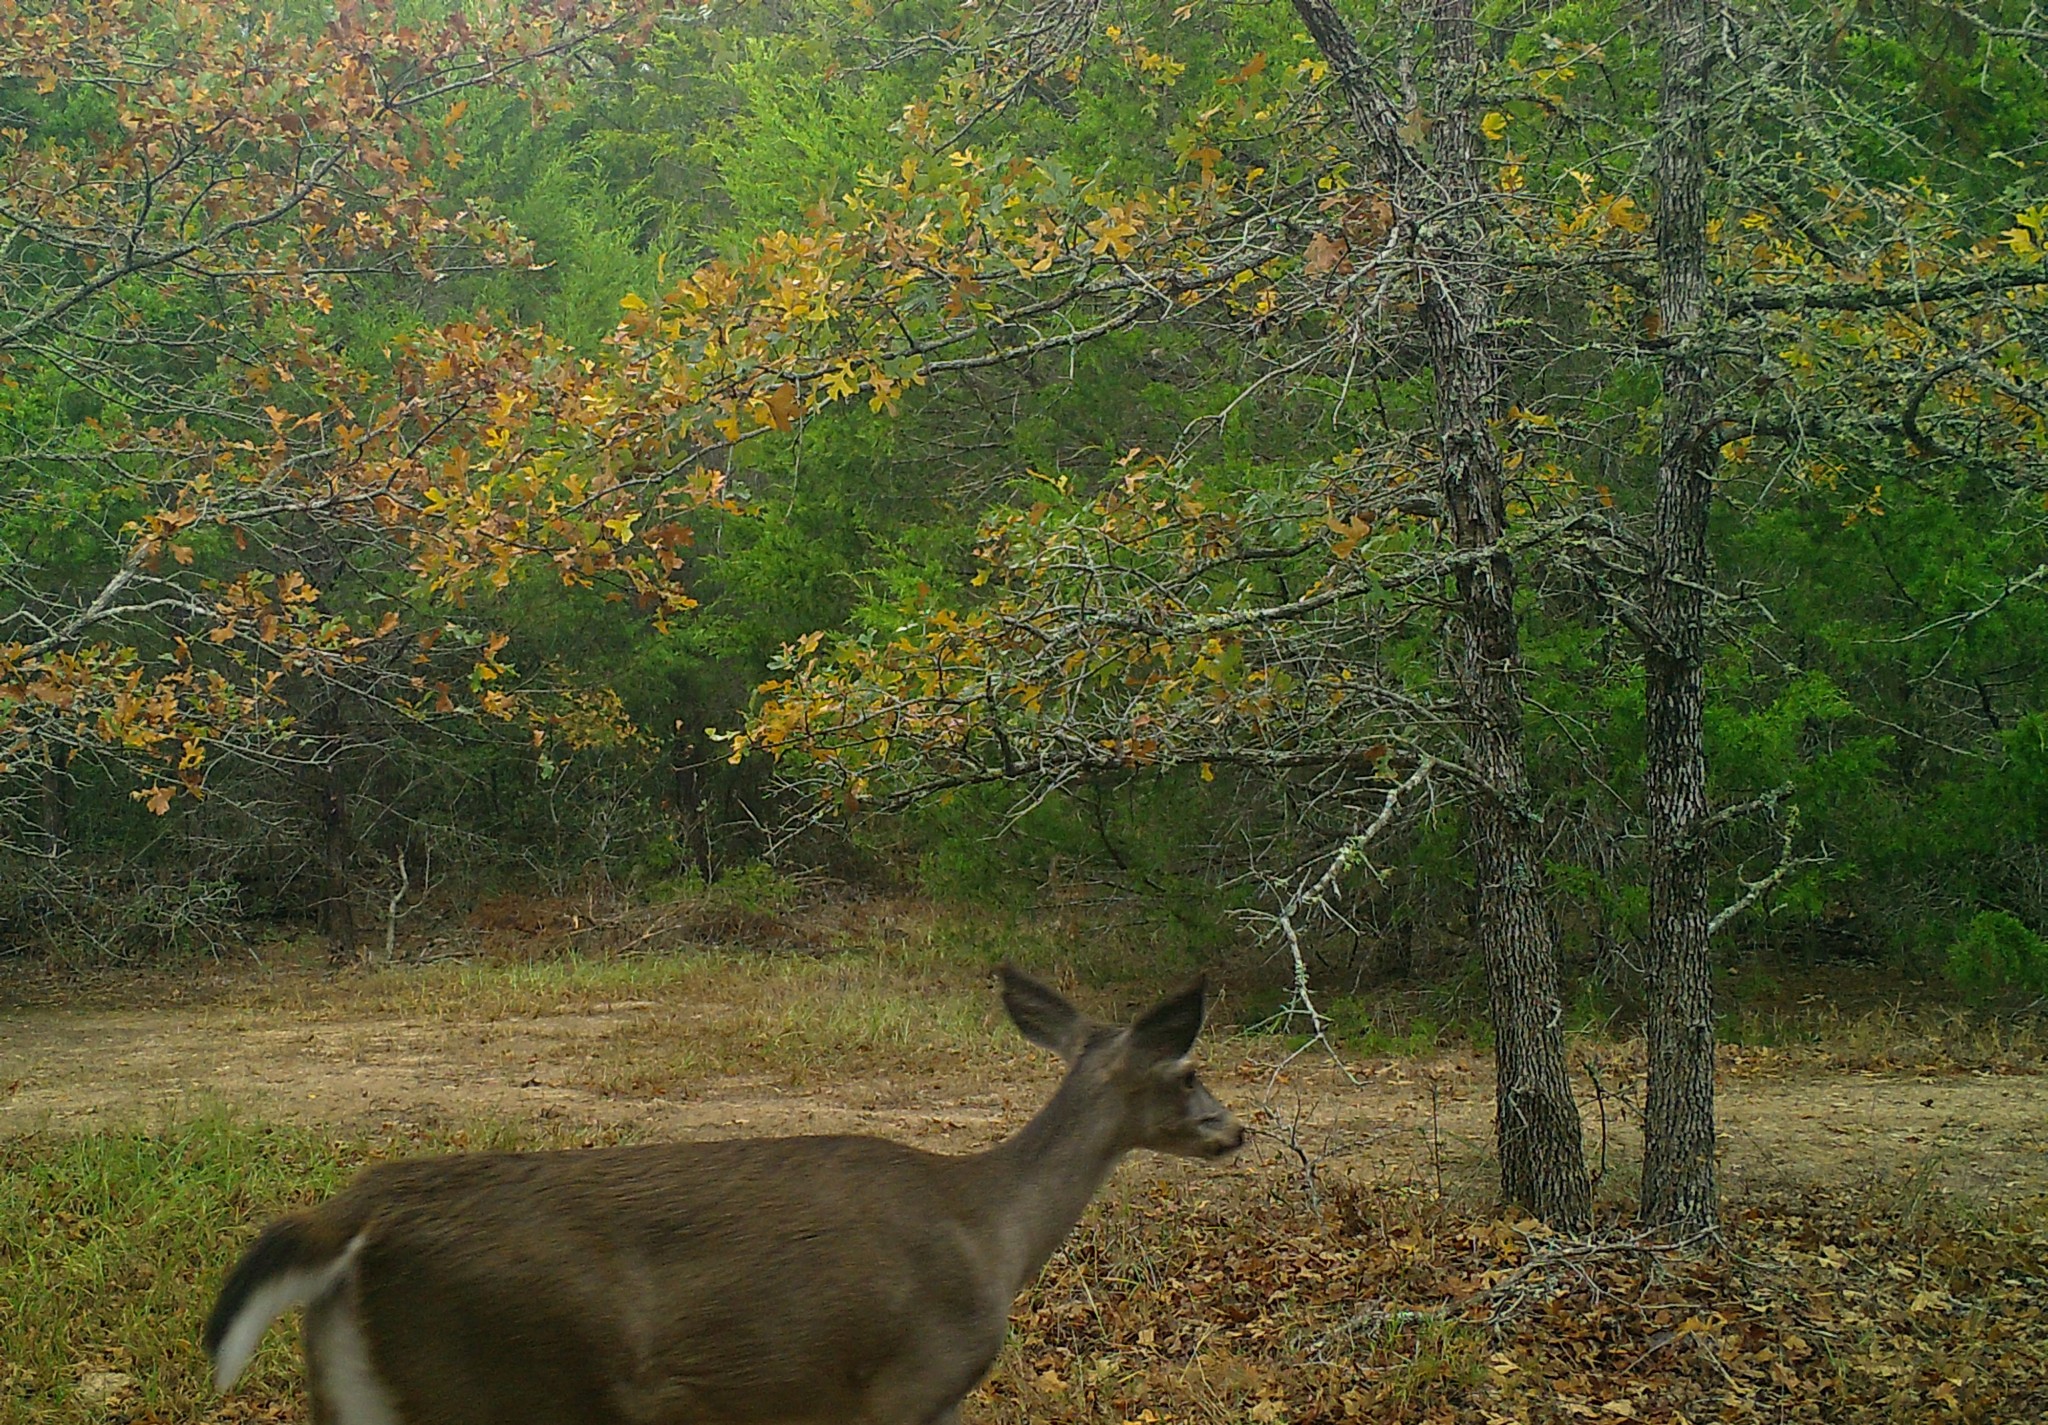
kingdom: Animalia
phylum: Chordata
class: Mammalia
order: Artiodactyla
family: Cervidae
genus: Odocoileus
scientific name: Odocoileus virginianus
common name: White-tailed deer
